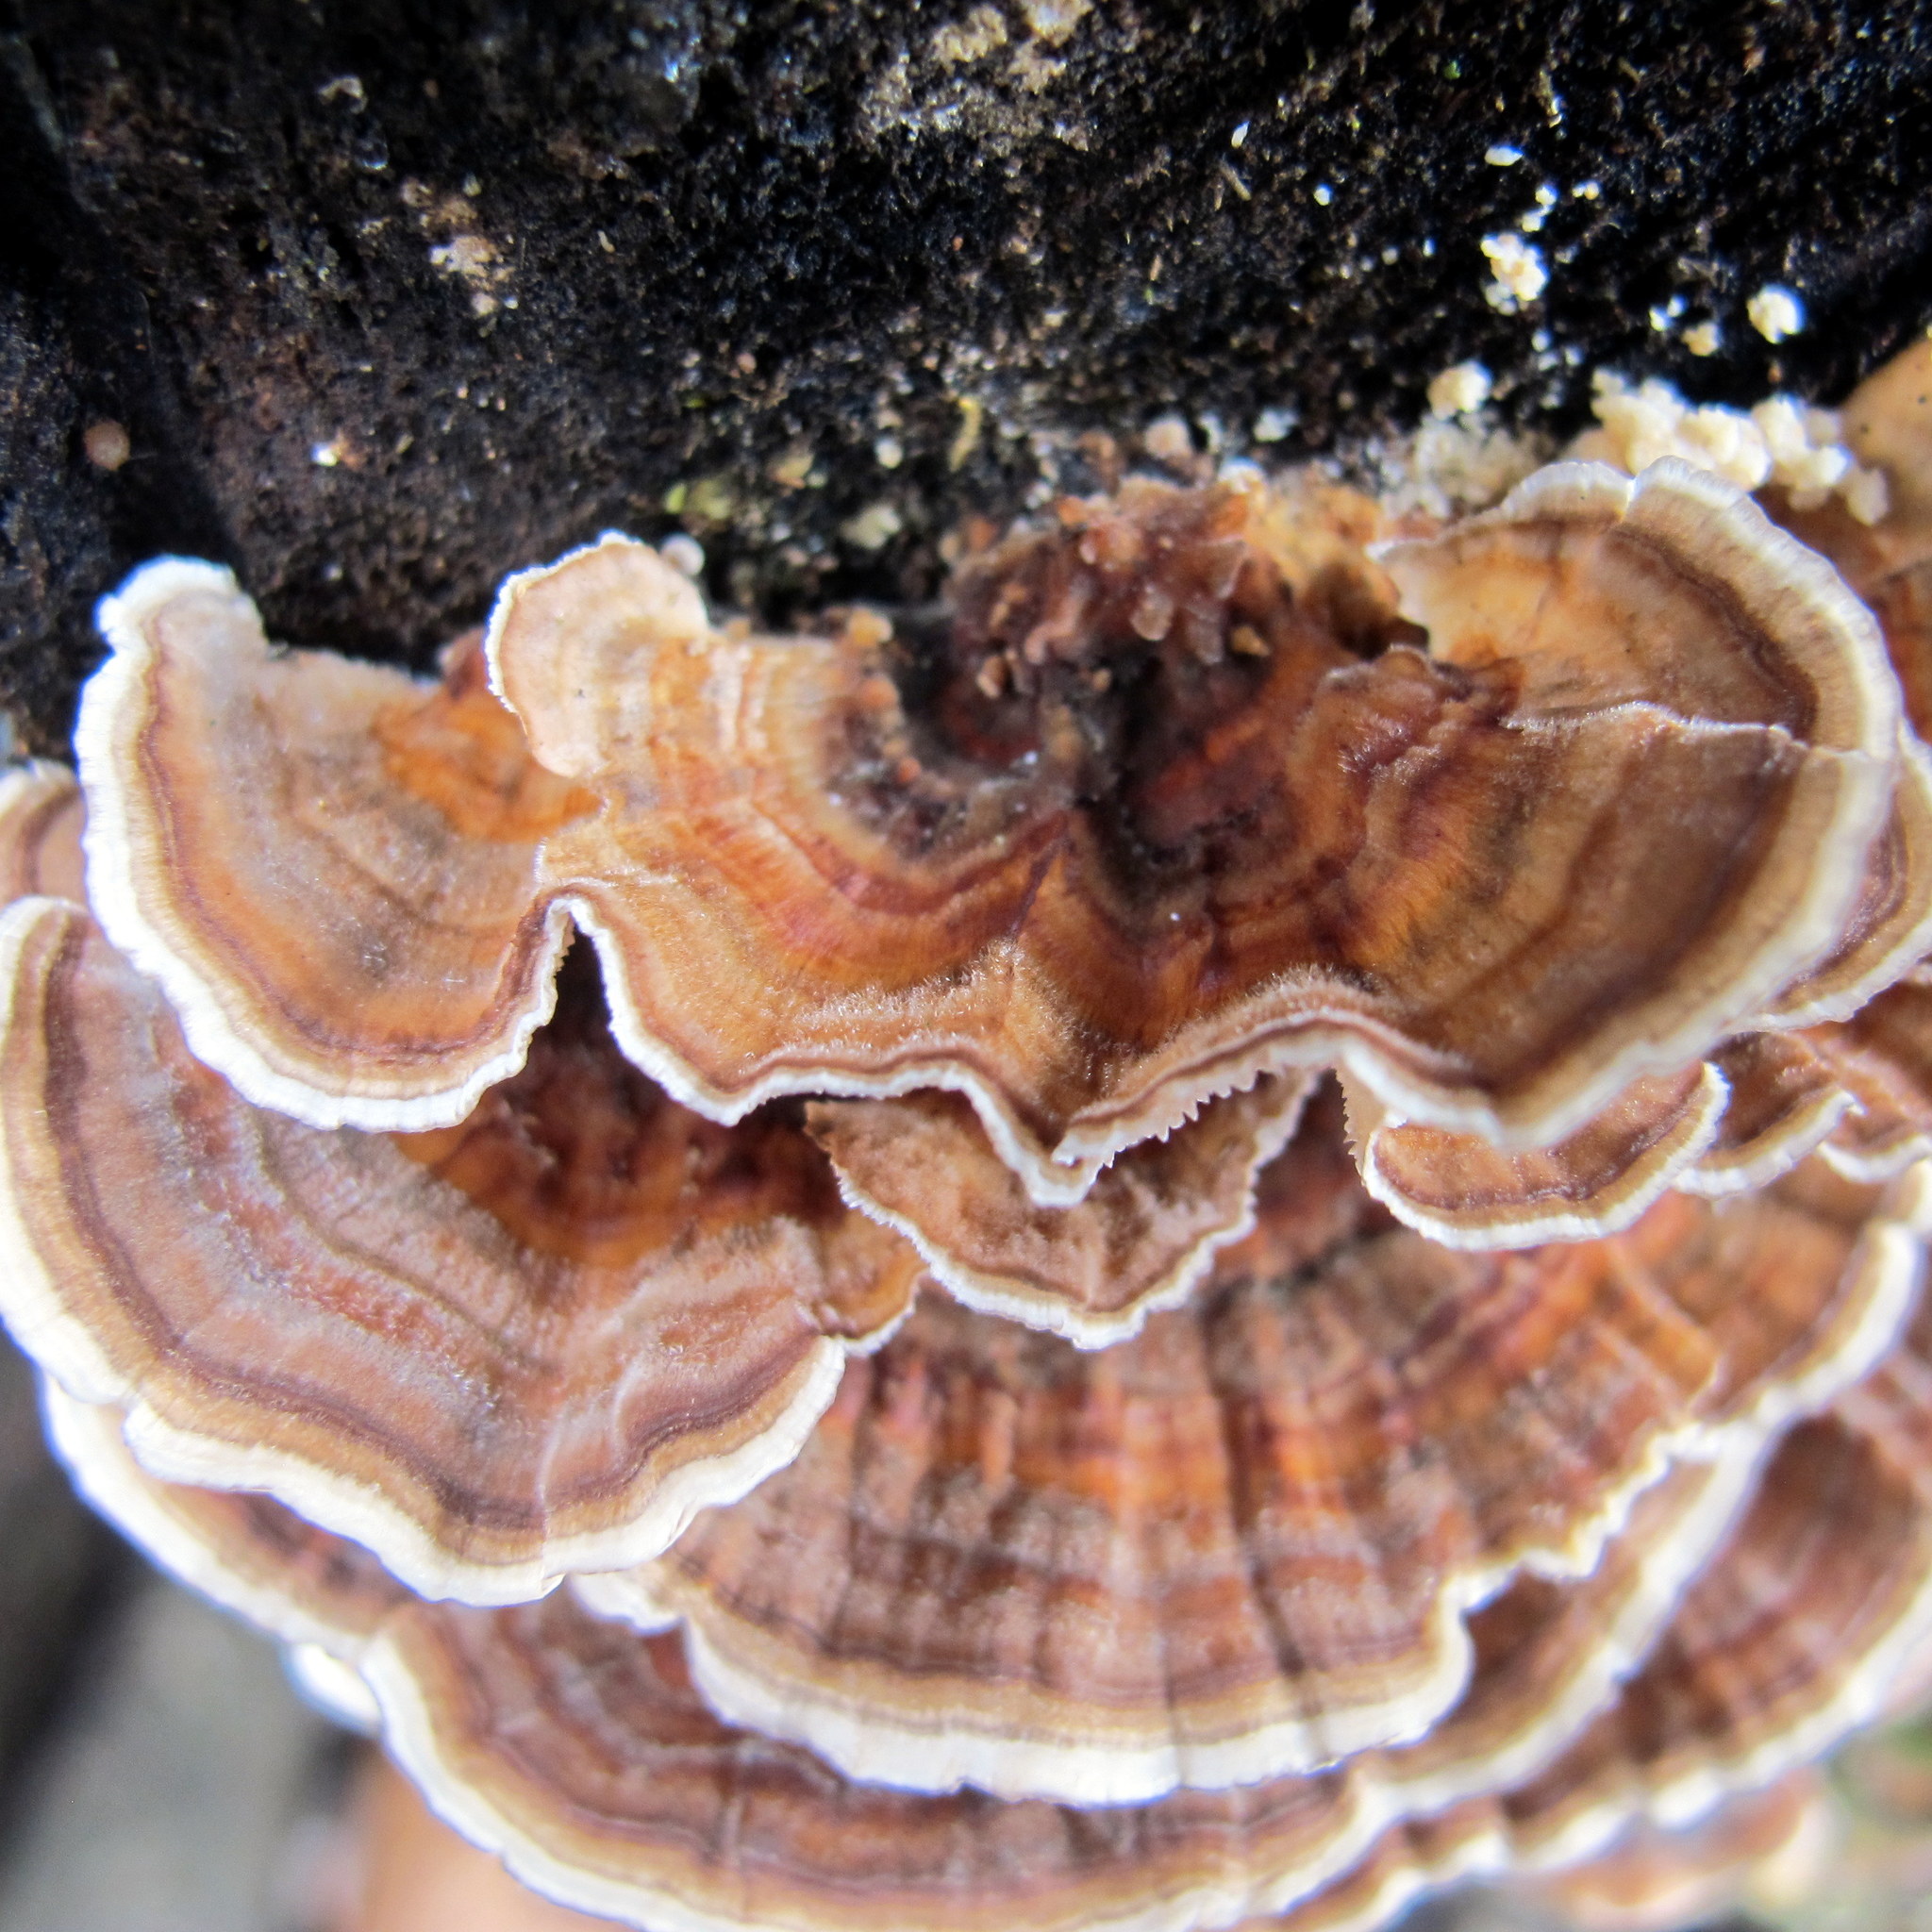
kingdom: Fungi
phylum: Basidiomycota
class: Agaricomycetes
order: Polyporales
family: Polyporaceae
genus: Trametes
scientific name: Trametes versicolor
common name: Turkeytail
